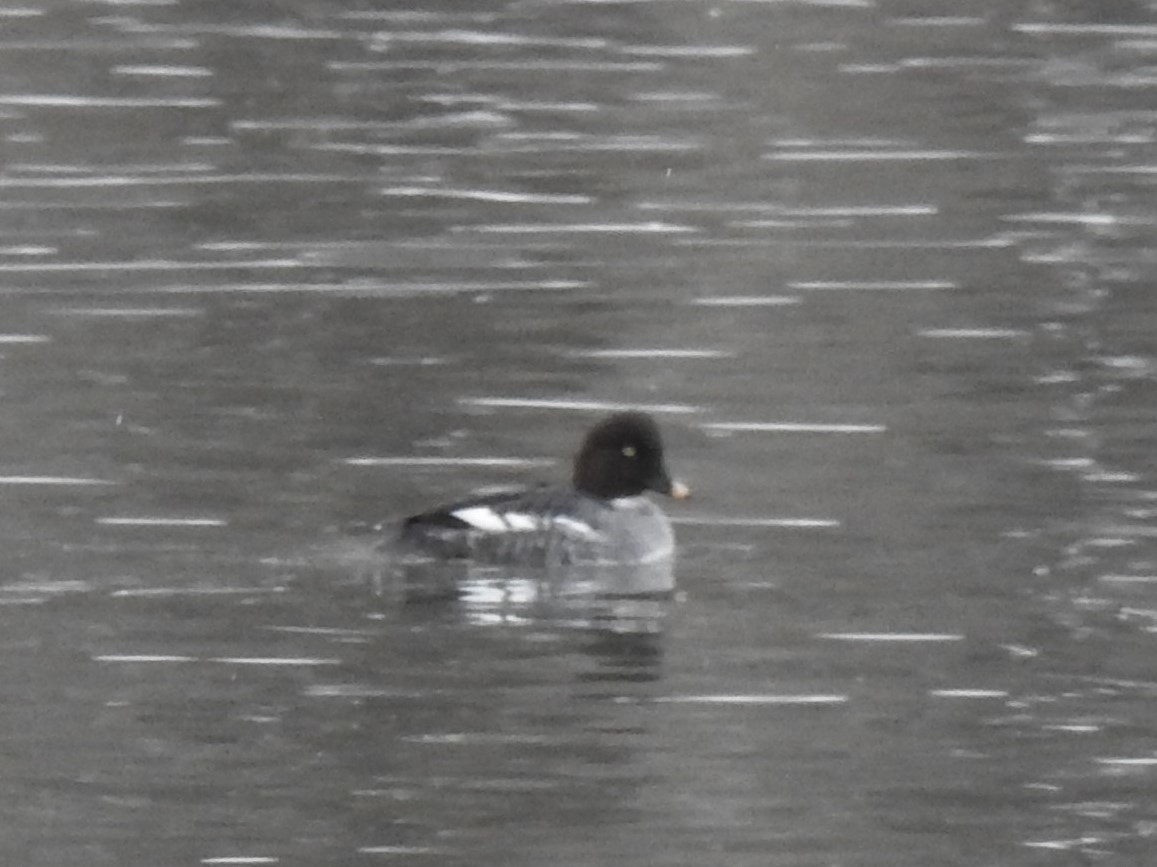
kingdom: Animalia
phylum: Chordata
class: Aves
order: Anseriformes
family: Anatidae
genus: Bucephala
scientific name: Bucephala clangula
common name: Common goldeneye
